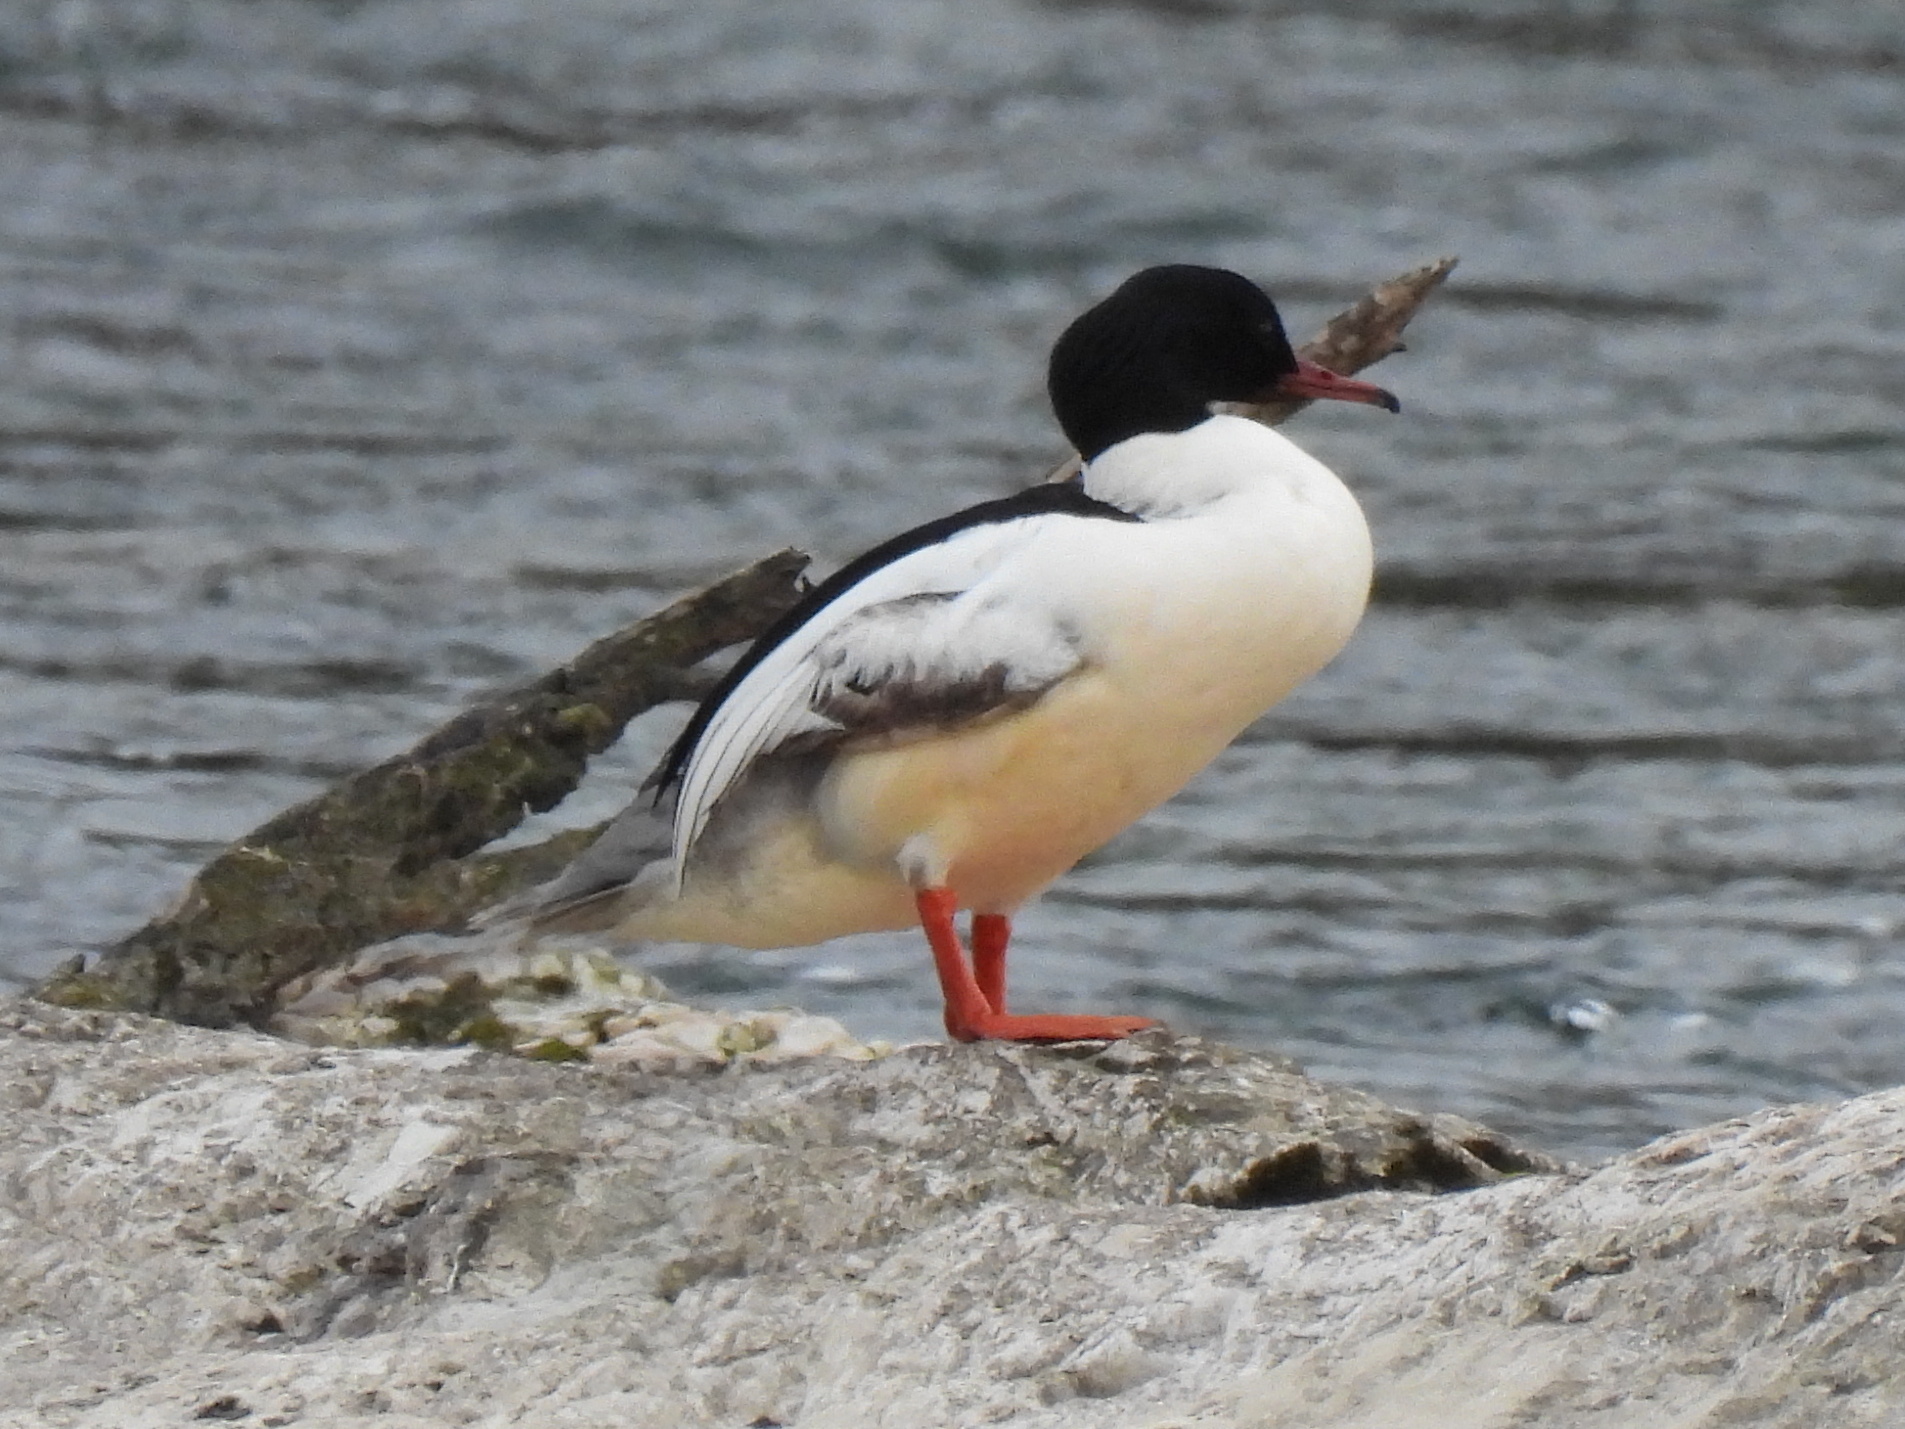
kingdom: Animalia
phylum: Chordata
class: Aves
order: Anseriformes
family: Anatidae
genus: Mergus
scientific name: Mergus merganser
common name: Common merganser
